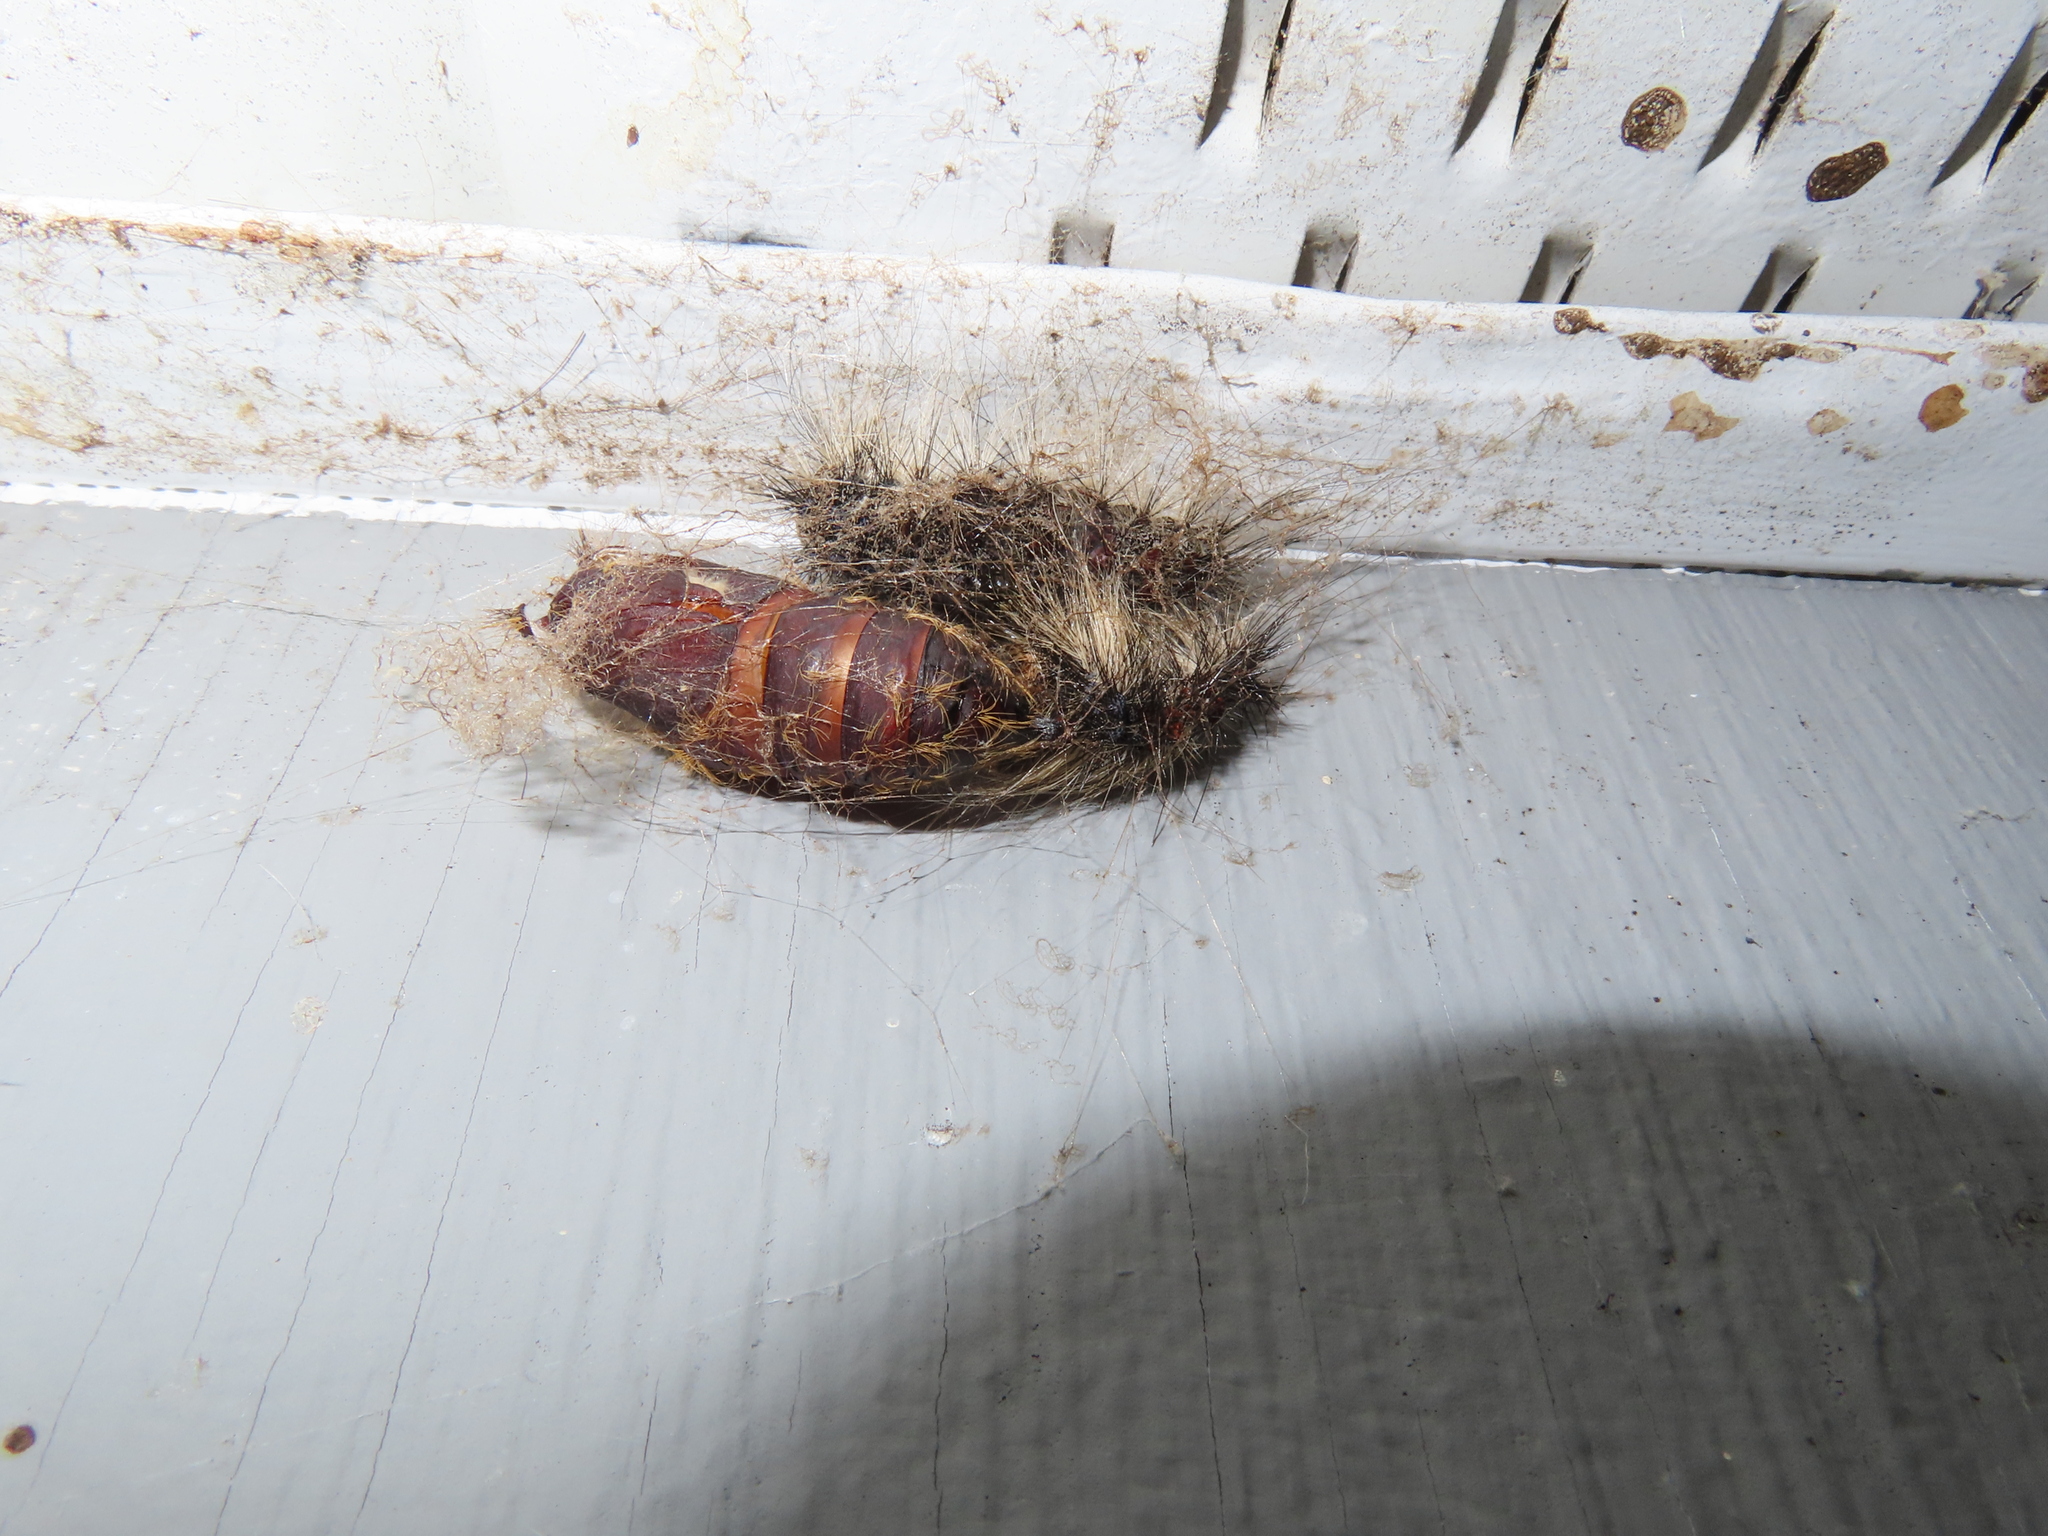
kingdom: Animalia
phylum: Arthropoda
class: Insecta
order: Lepidoptera
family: Erebidae
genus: Lymantria
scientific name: Lymantria dispar
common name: Gypsy moth
